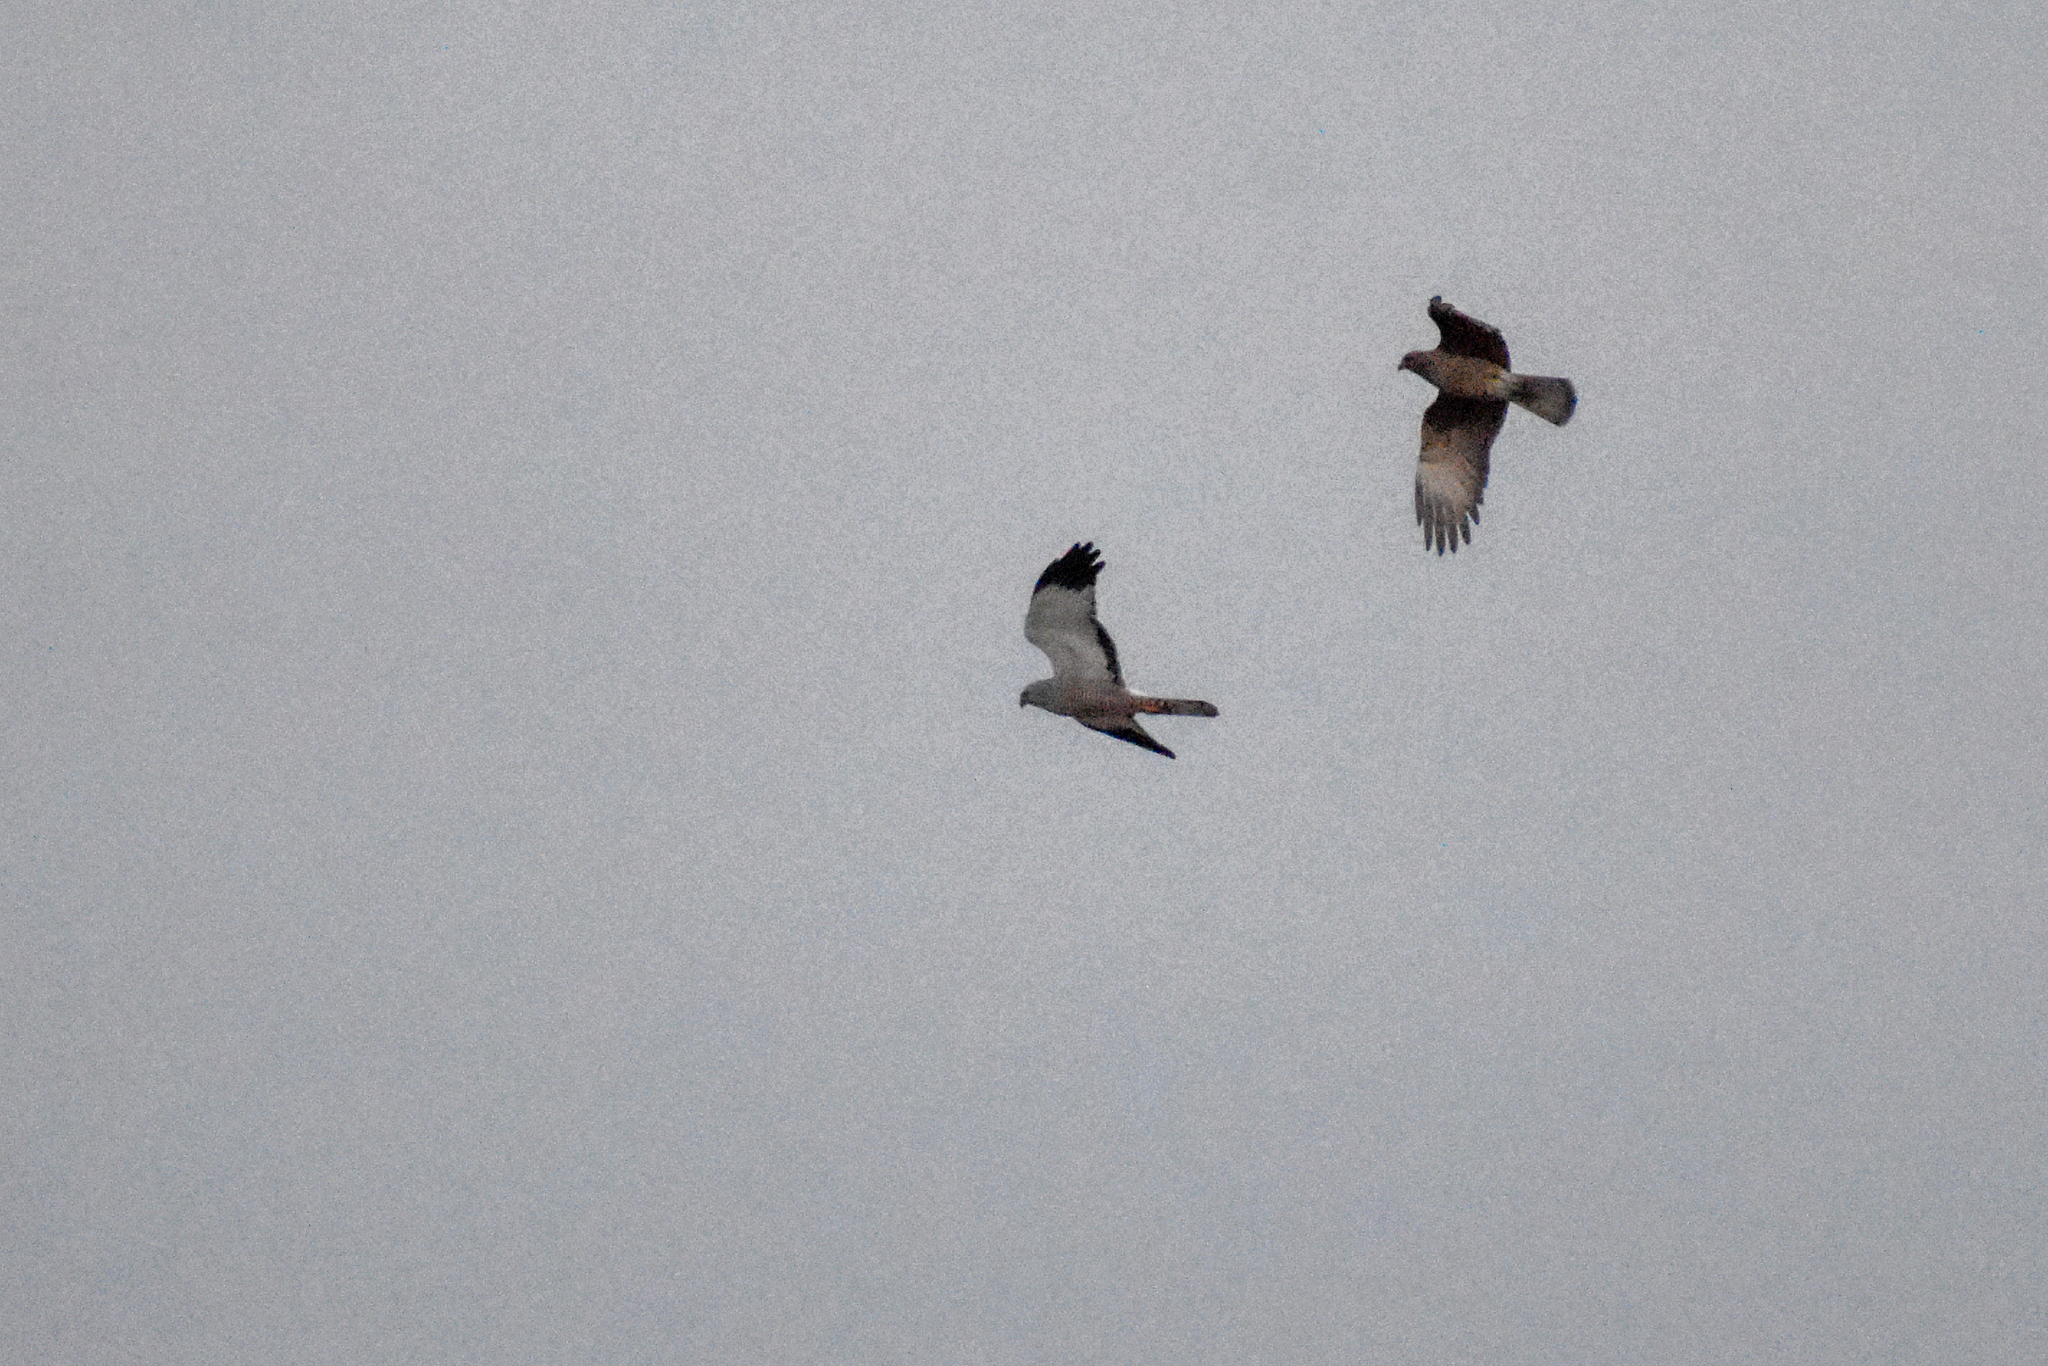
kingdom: Animalia
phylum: Chordata
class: Aves
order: Accipitriformes
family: Accipitridae
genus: Circus
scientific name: Circus cinereus
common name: Cinereous harrier
